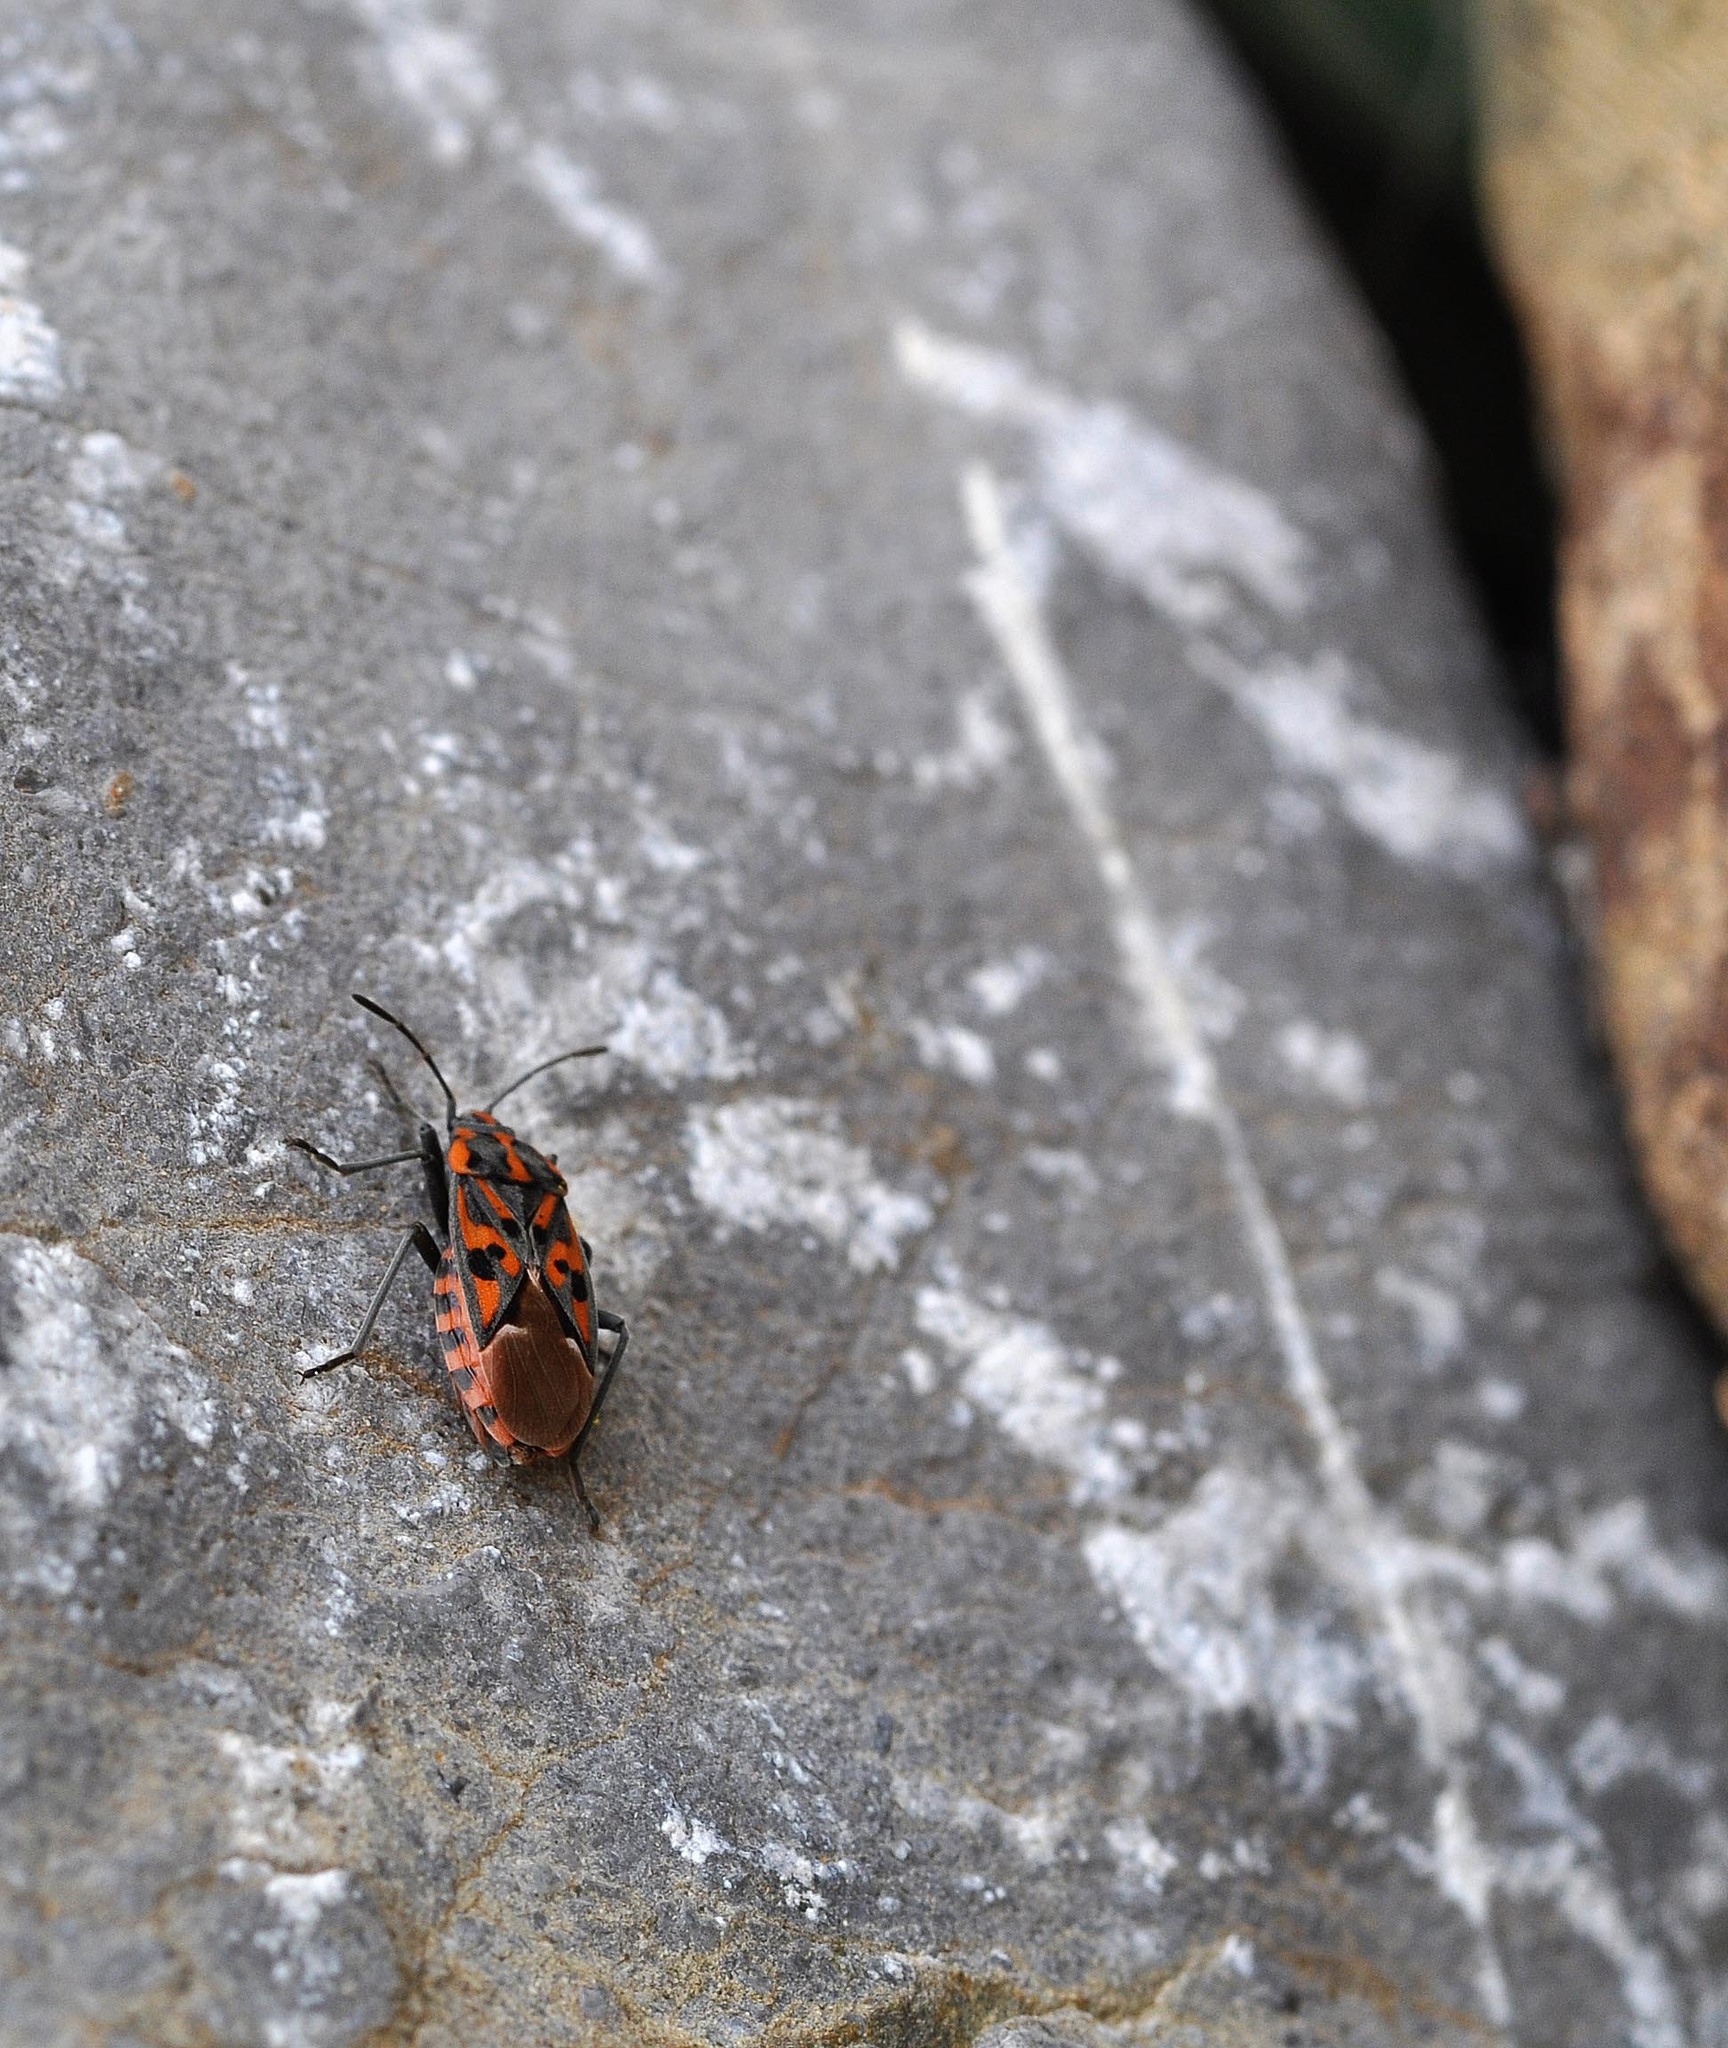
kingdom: Animalia
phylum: Arthropoda
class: Insecta
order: Hemiptera
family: Lygaeidae
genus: Spilostethus
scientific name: Spilostethus saxatilis
